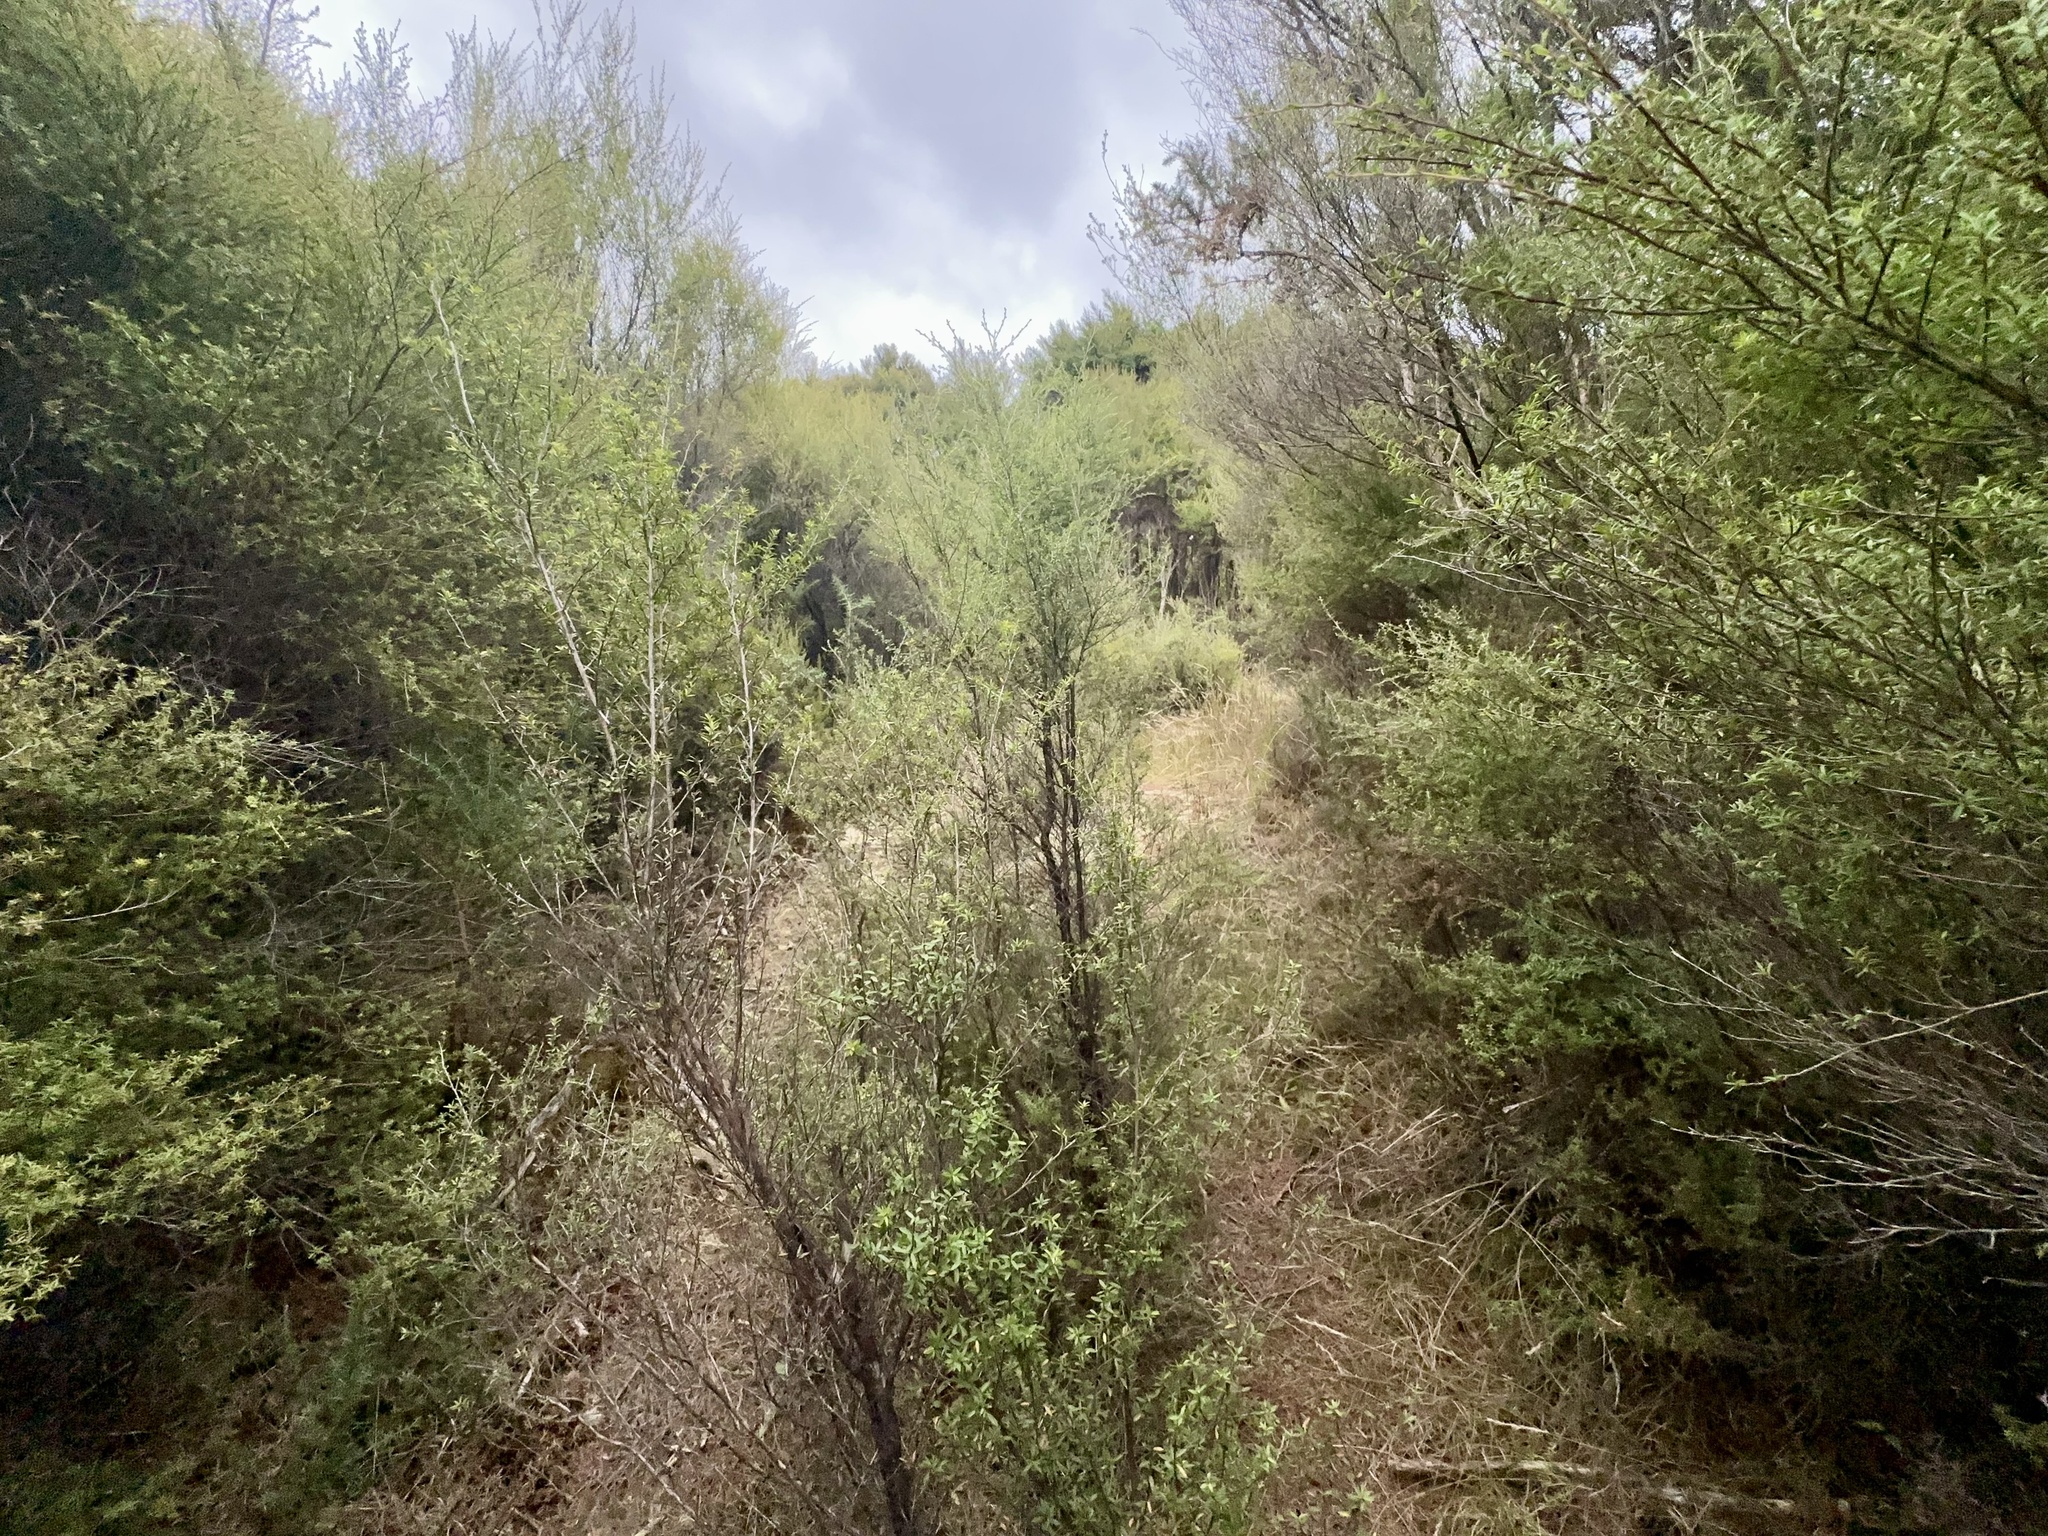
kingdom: Plantae
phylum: Tracheophyta
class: Magnoliopsida
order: Myrtales
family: Myrtaceae
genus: Leptospermum
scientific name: Leptospermum scoparium
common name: Broom tea-tree
